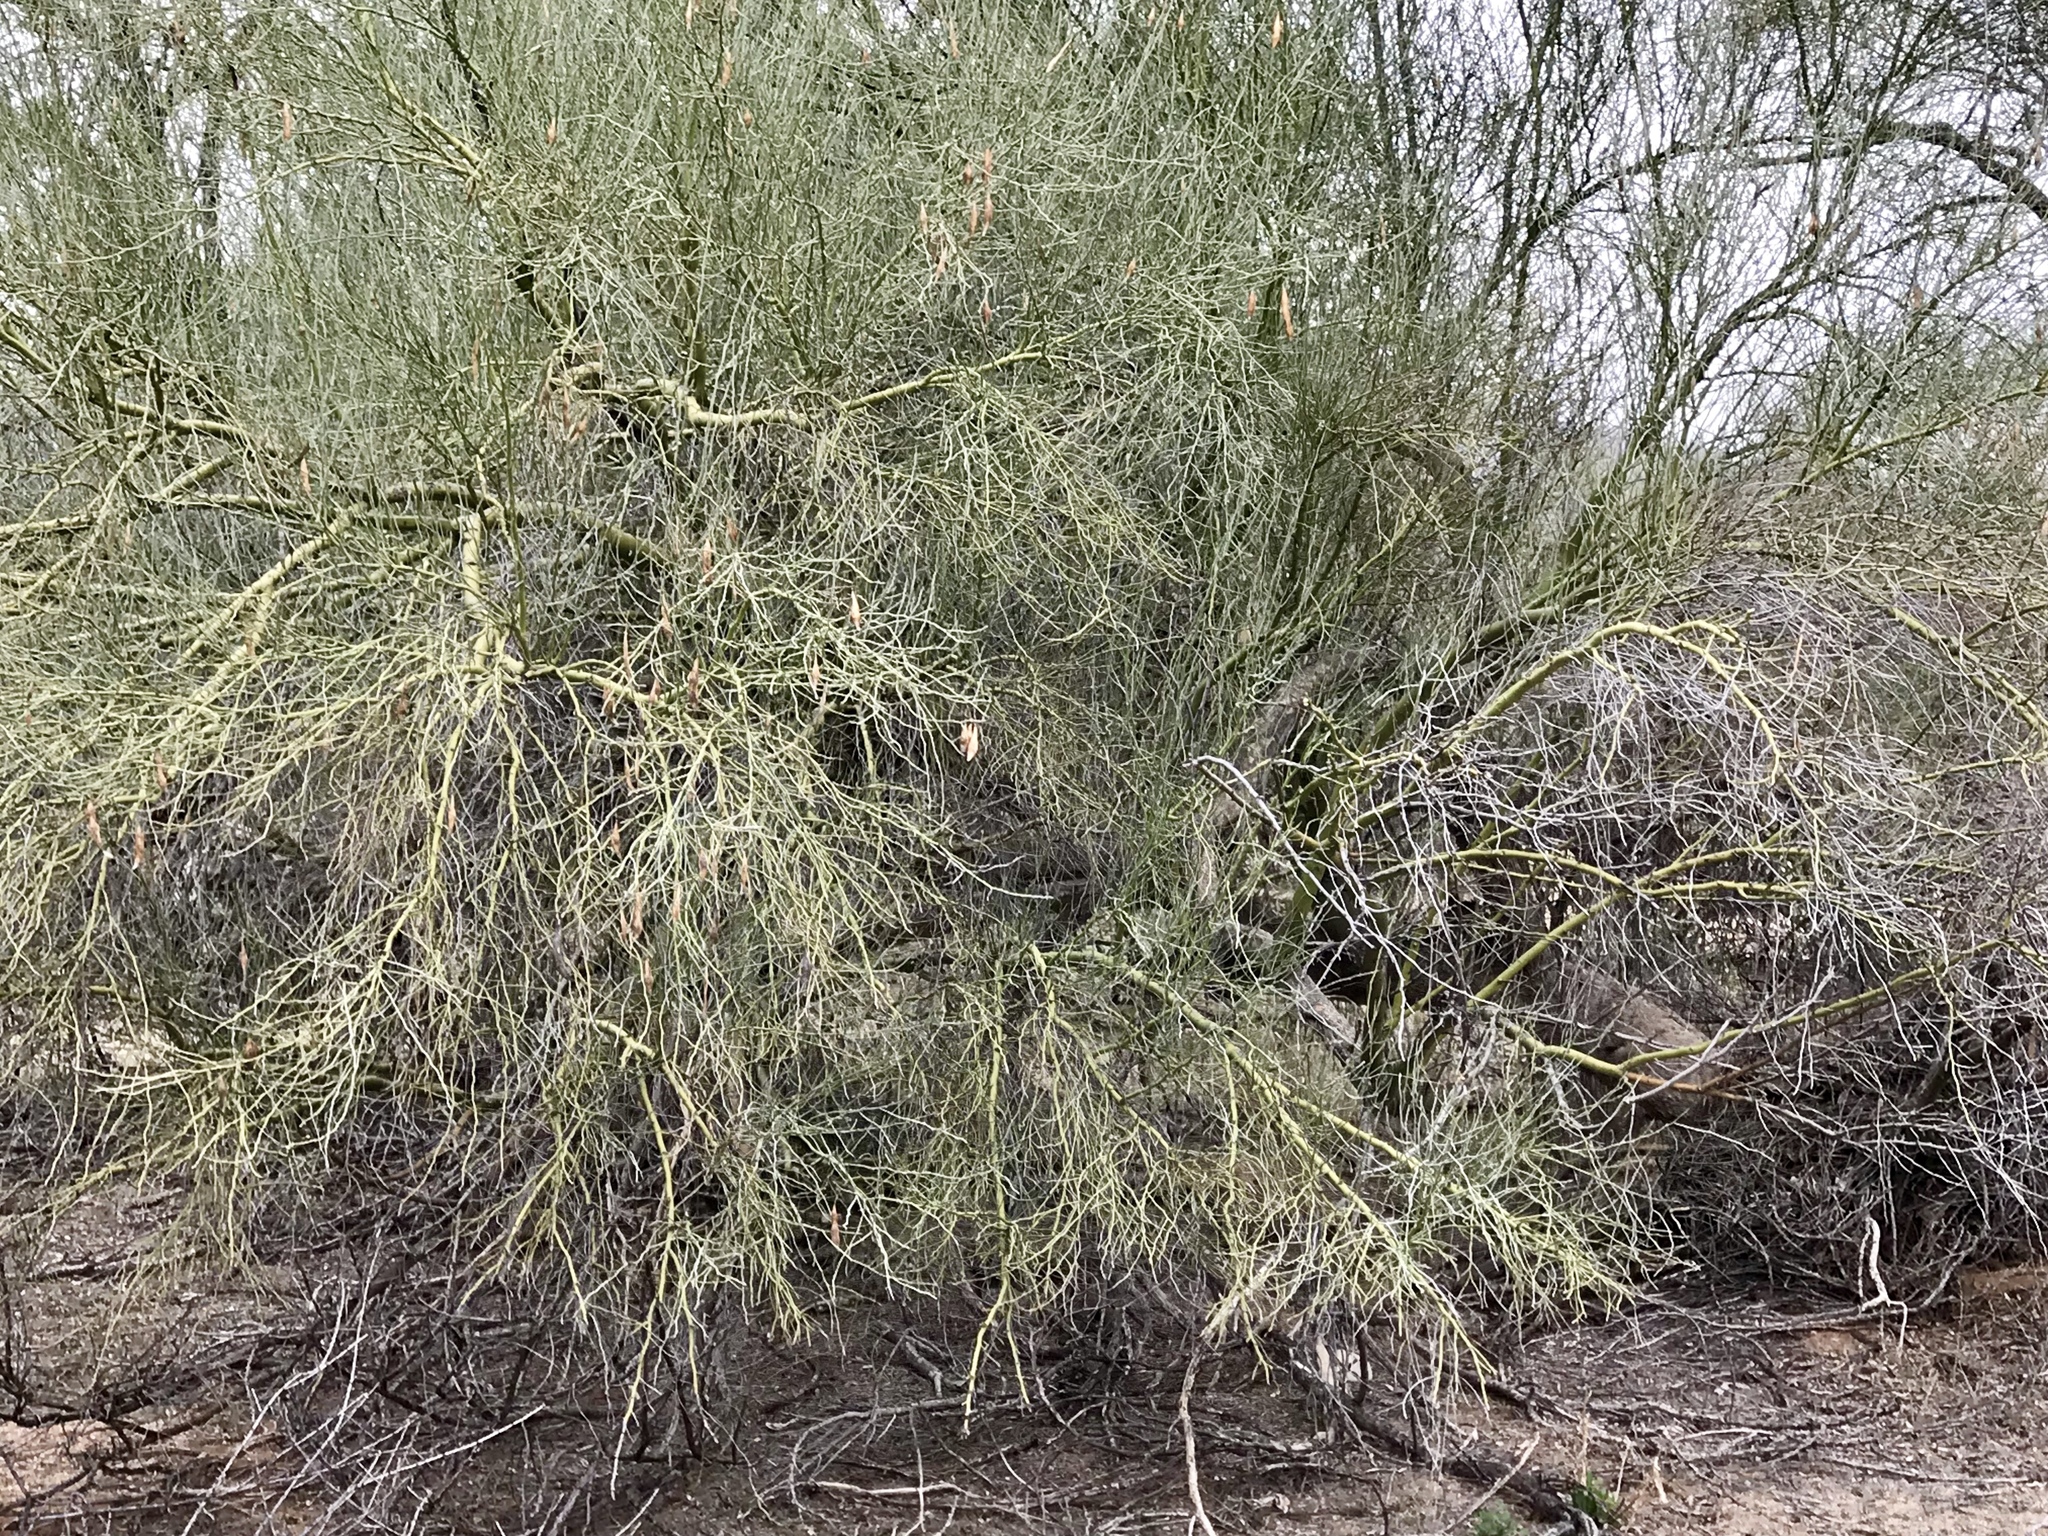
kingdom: Plantae
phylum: Tracheophyta
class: Magnoliopsida
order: Fabales
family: Fabaceae
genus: Parkinsonia
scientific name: Parkinsonia florida
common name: Blue paloverde
